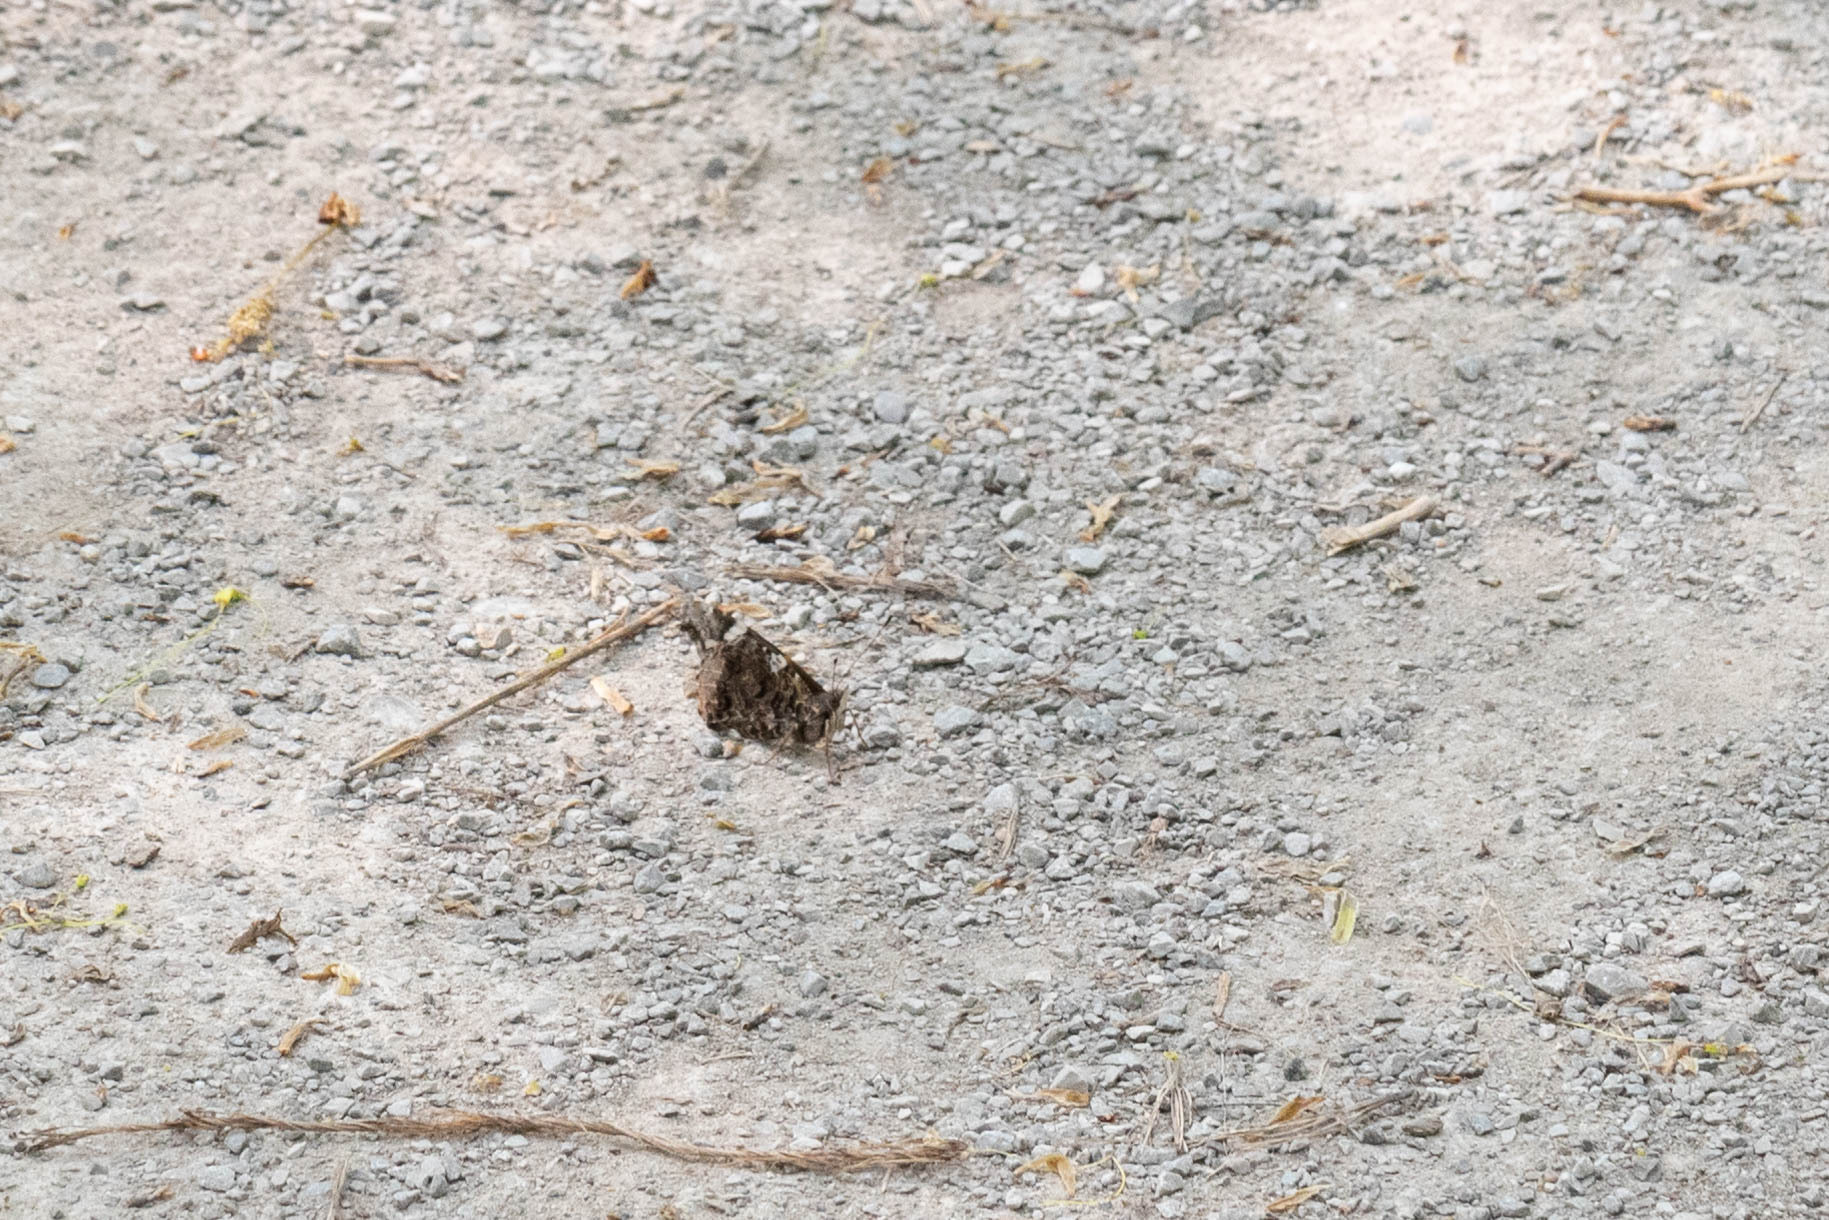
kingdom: Animalia
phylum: Arthropoda
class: Insecta
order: Lepidoptera
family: Nymphalidae
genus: Vanessa
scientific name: Vanessa atalanta
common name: Red admiral
